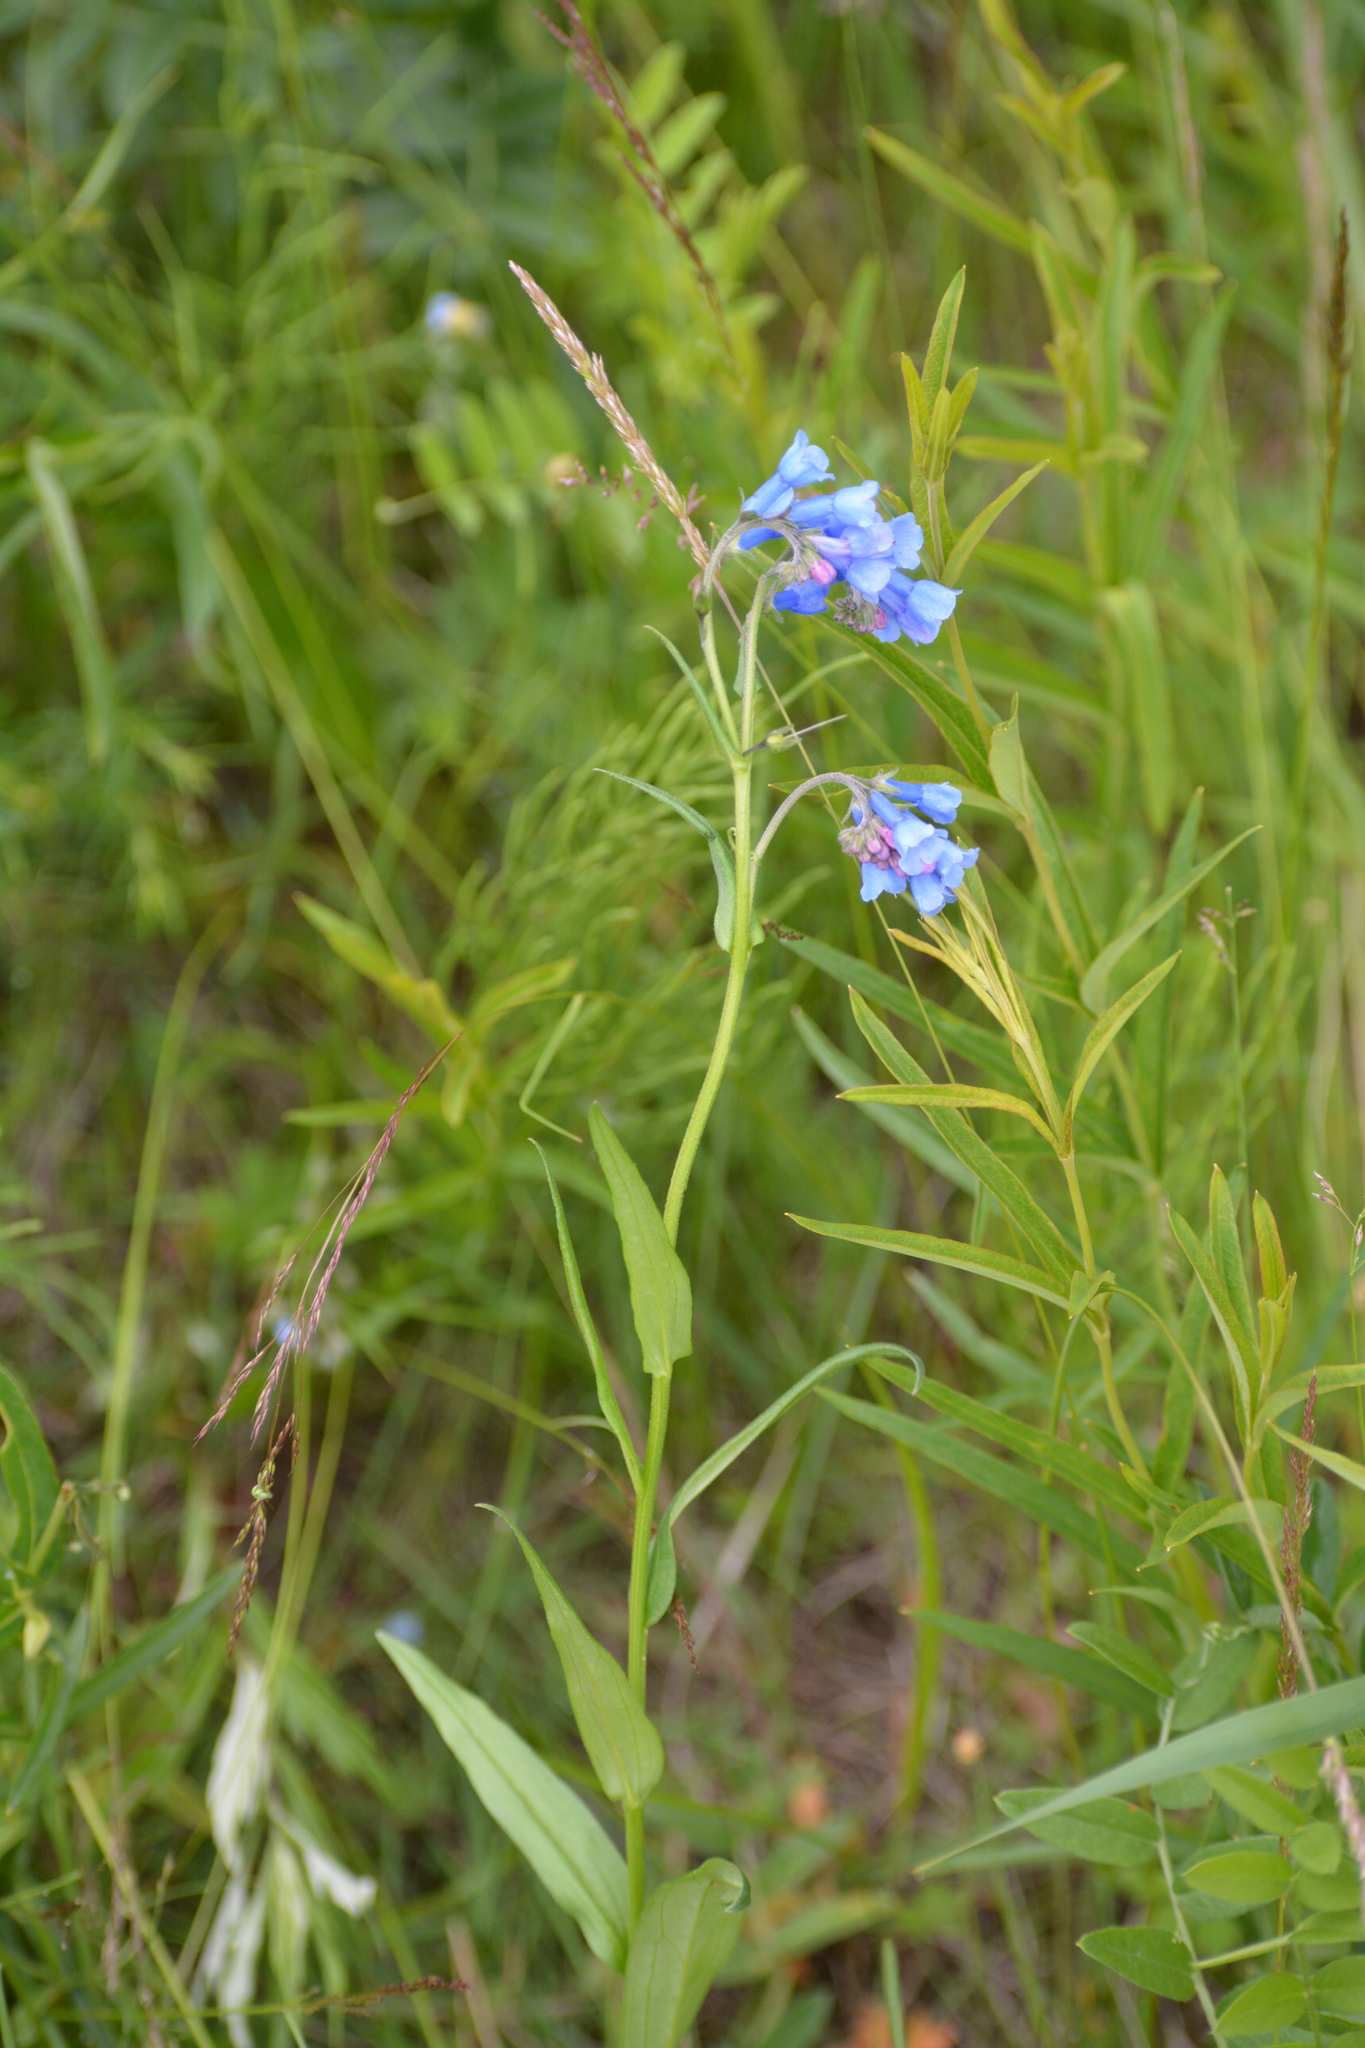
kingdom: Plantae
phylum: Tracheophyta
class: Magnoliopsida
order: Boraginales
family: Boraginaceae
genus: Mertensia
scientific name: Mertensia davurica
